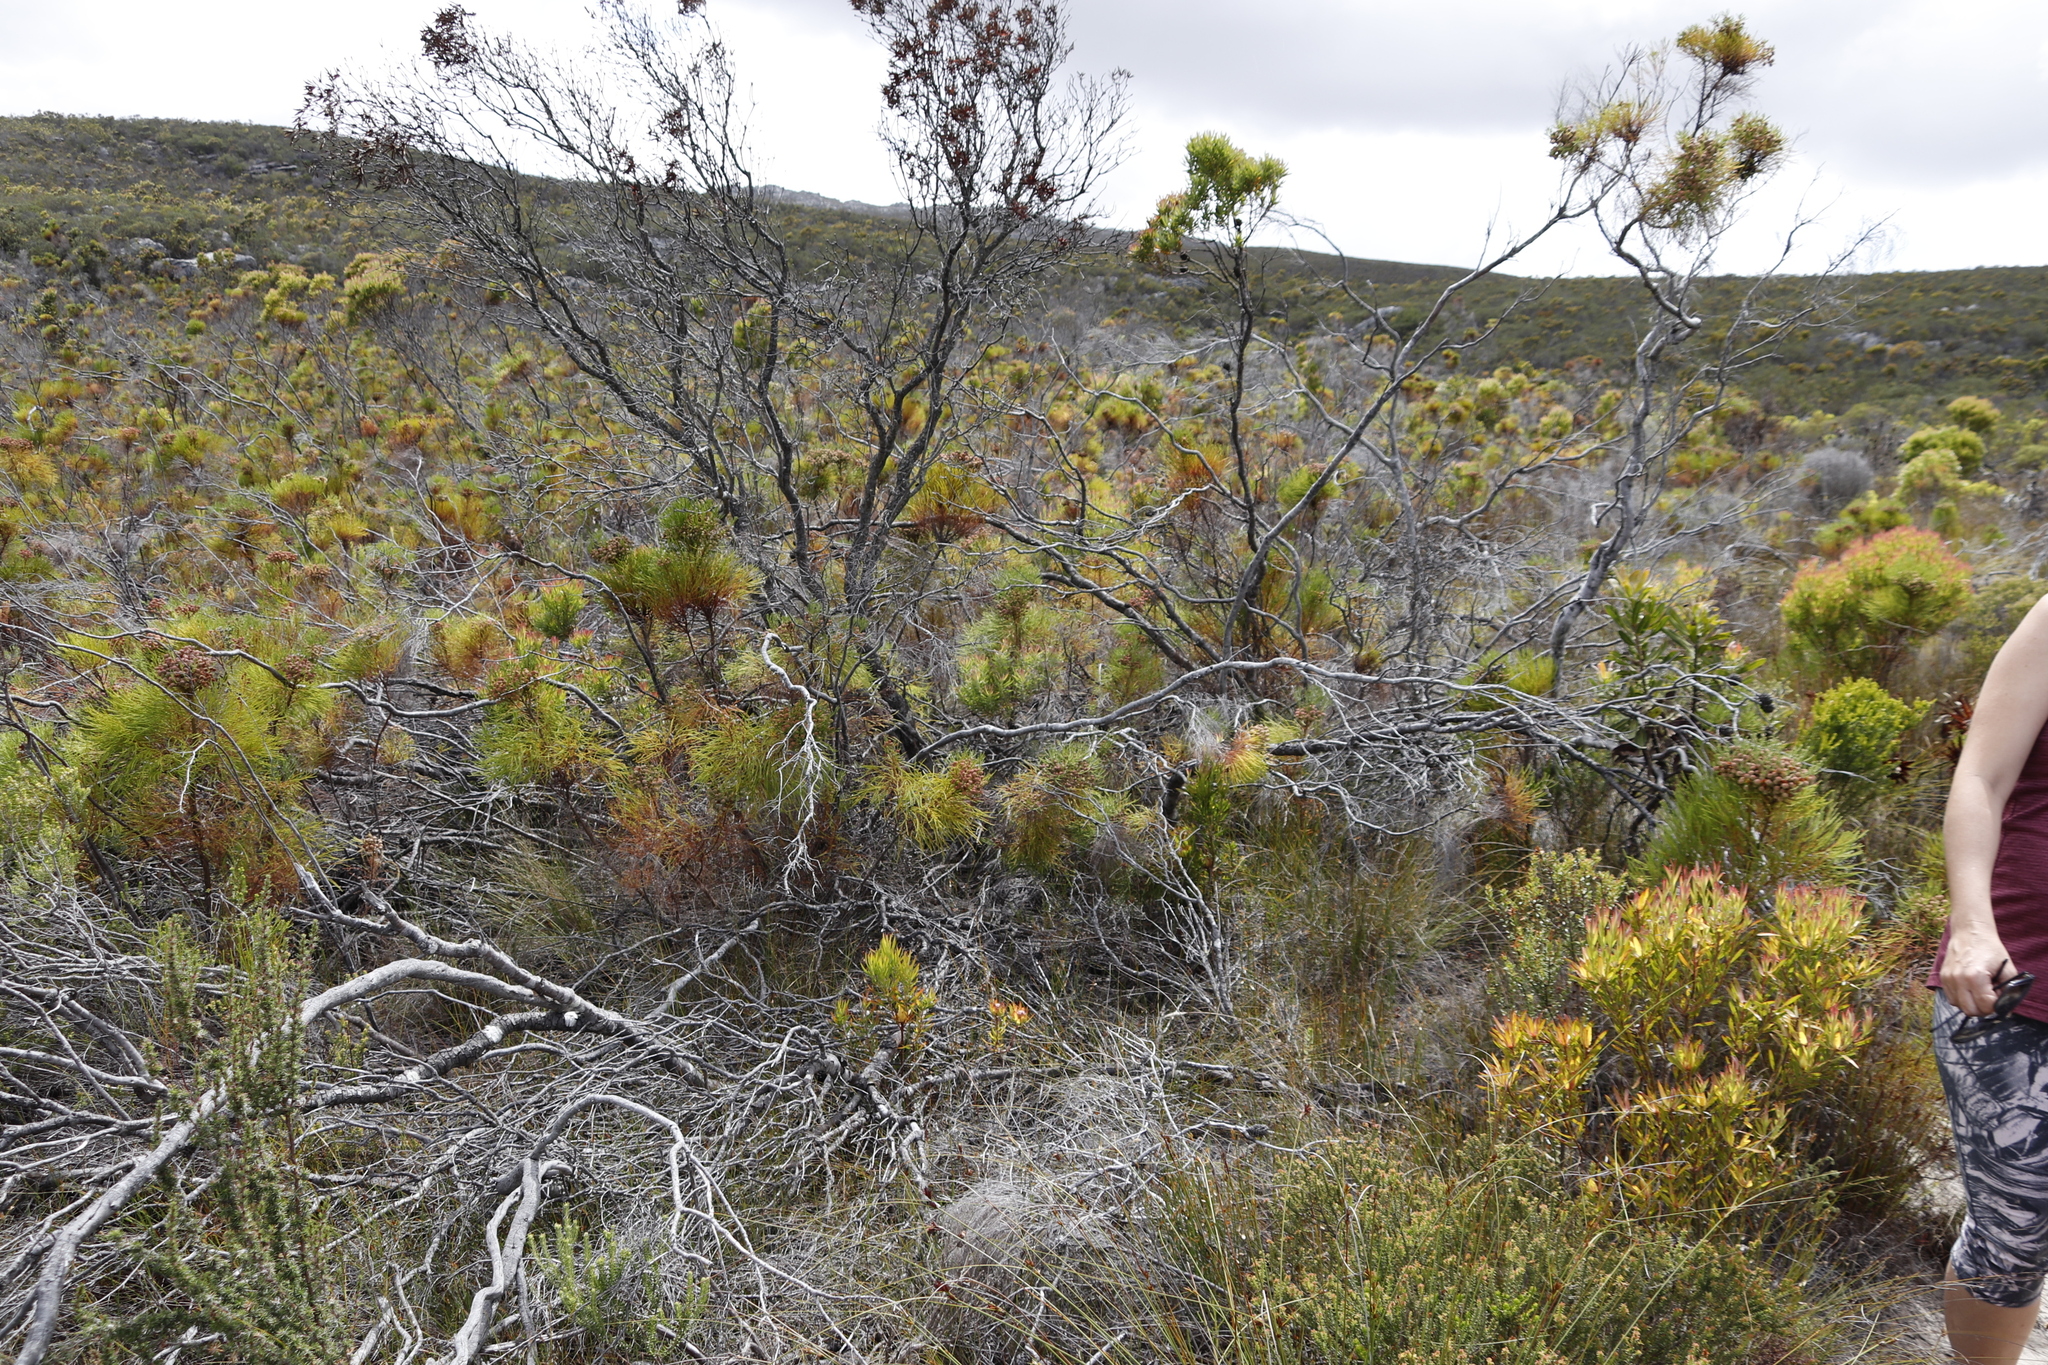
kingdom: Plantae
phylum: Tracheophyta
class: Magnoliopsida
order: Bruniales
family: Bruniaceae
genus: Berzelia
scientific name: Berzelia lanuginosa
